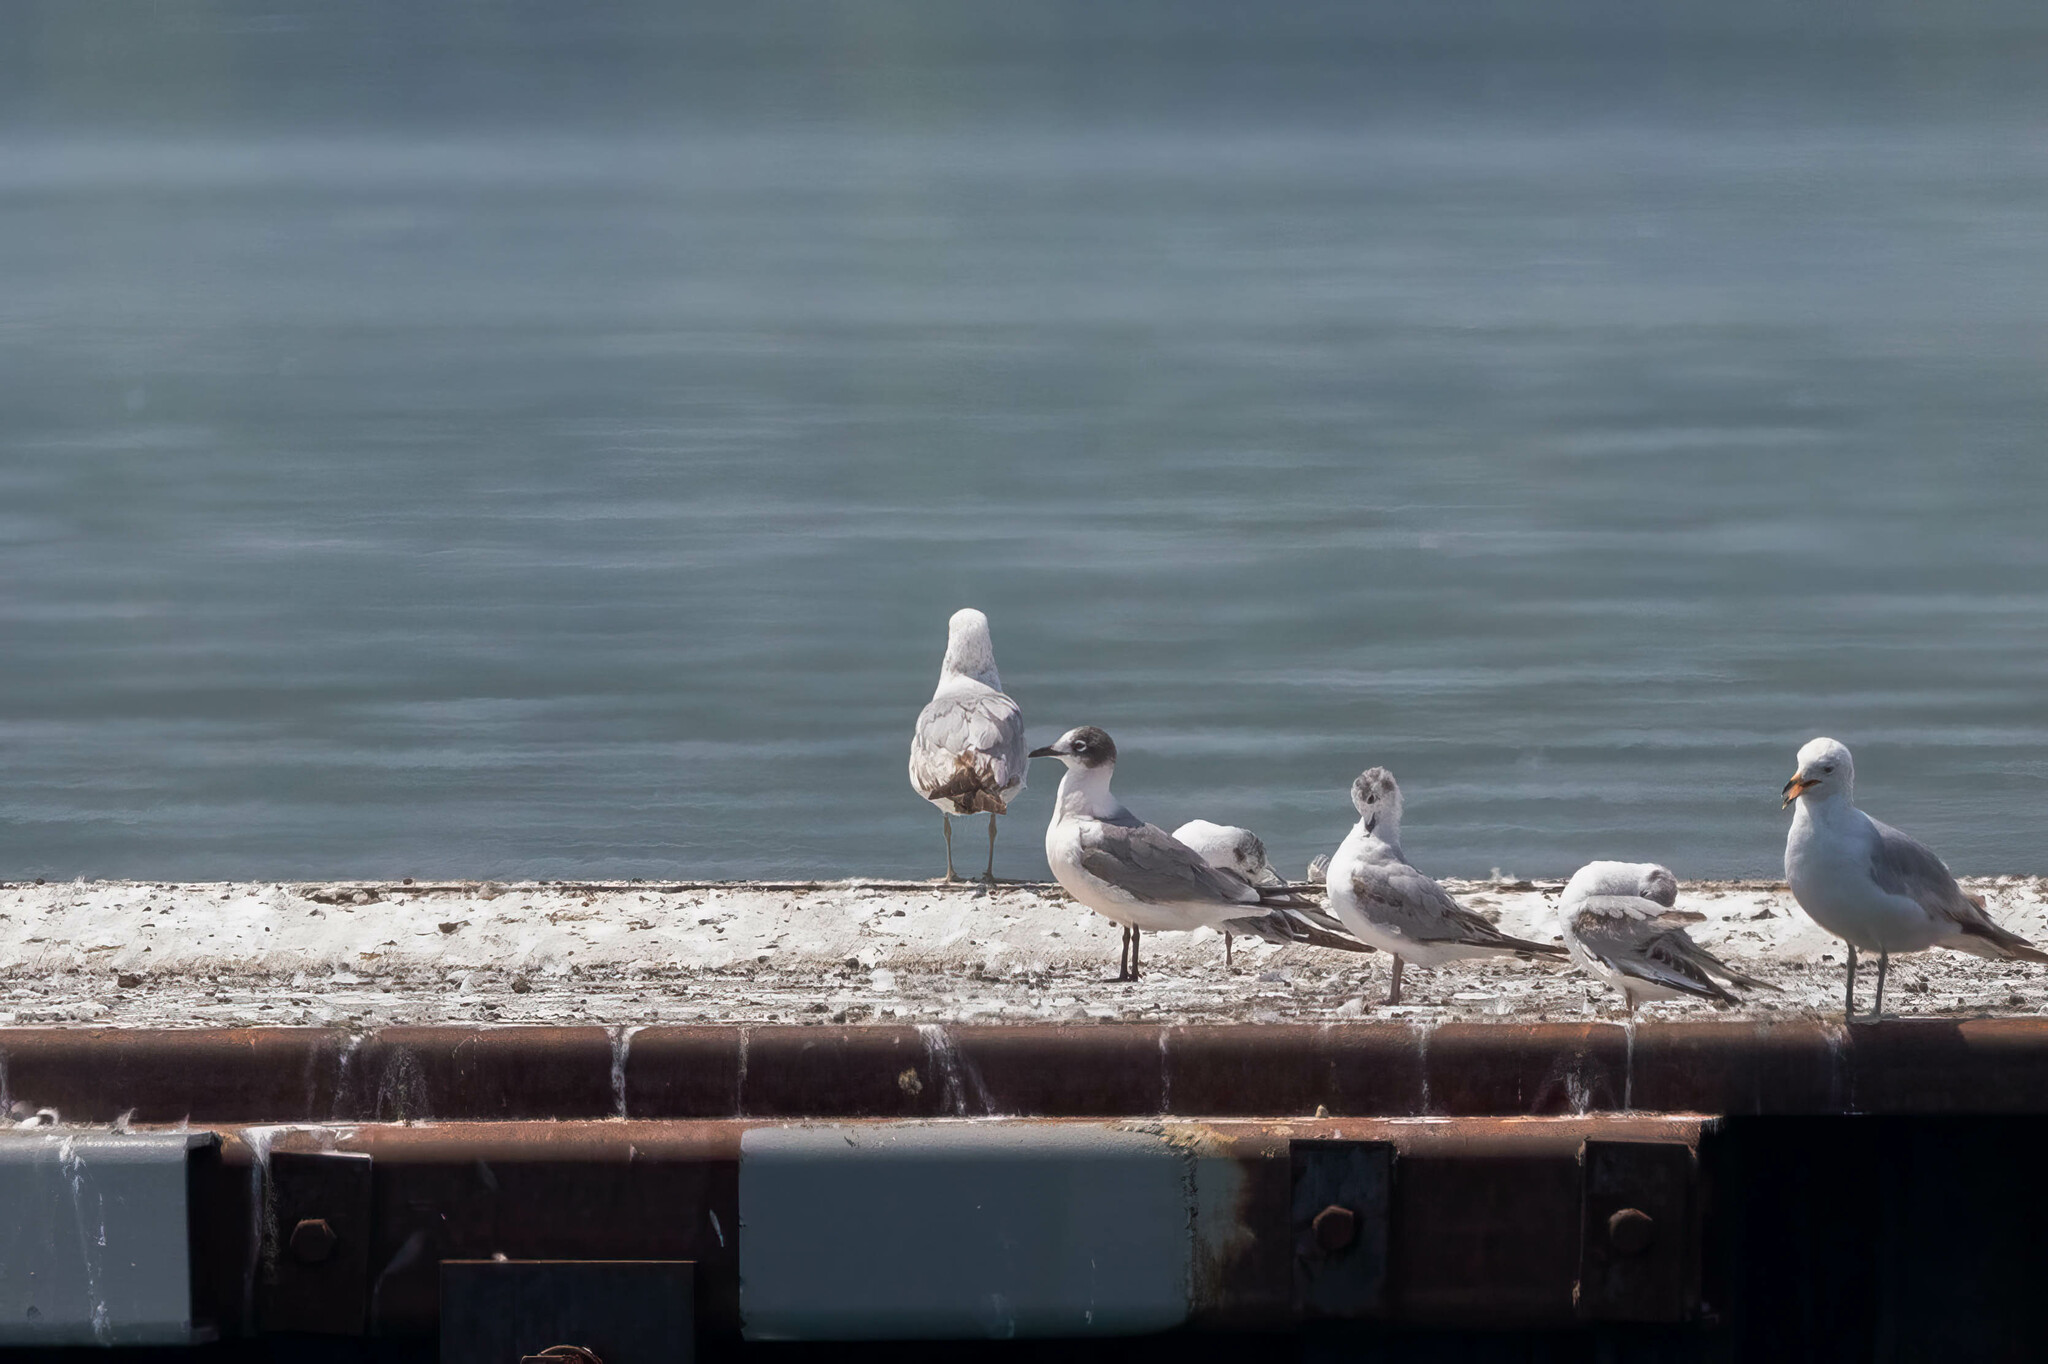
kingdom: Animalia
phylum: Chordata
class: Aves
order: Charadriiformes
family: Laridae
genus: Leucophaeus
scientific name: Leucophaeus pipixcan
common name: Franklin's gull
